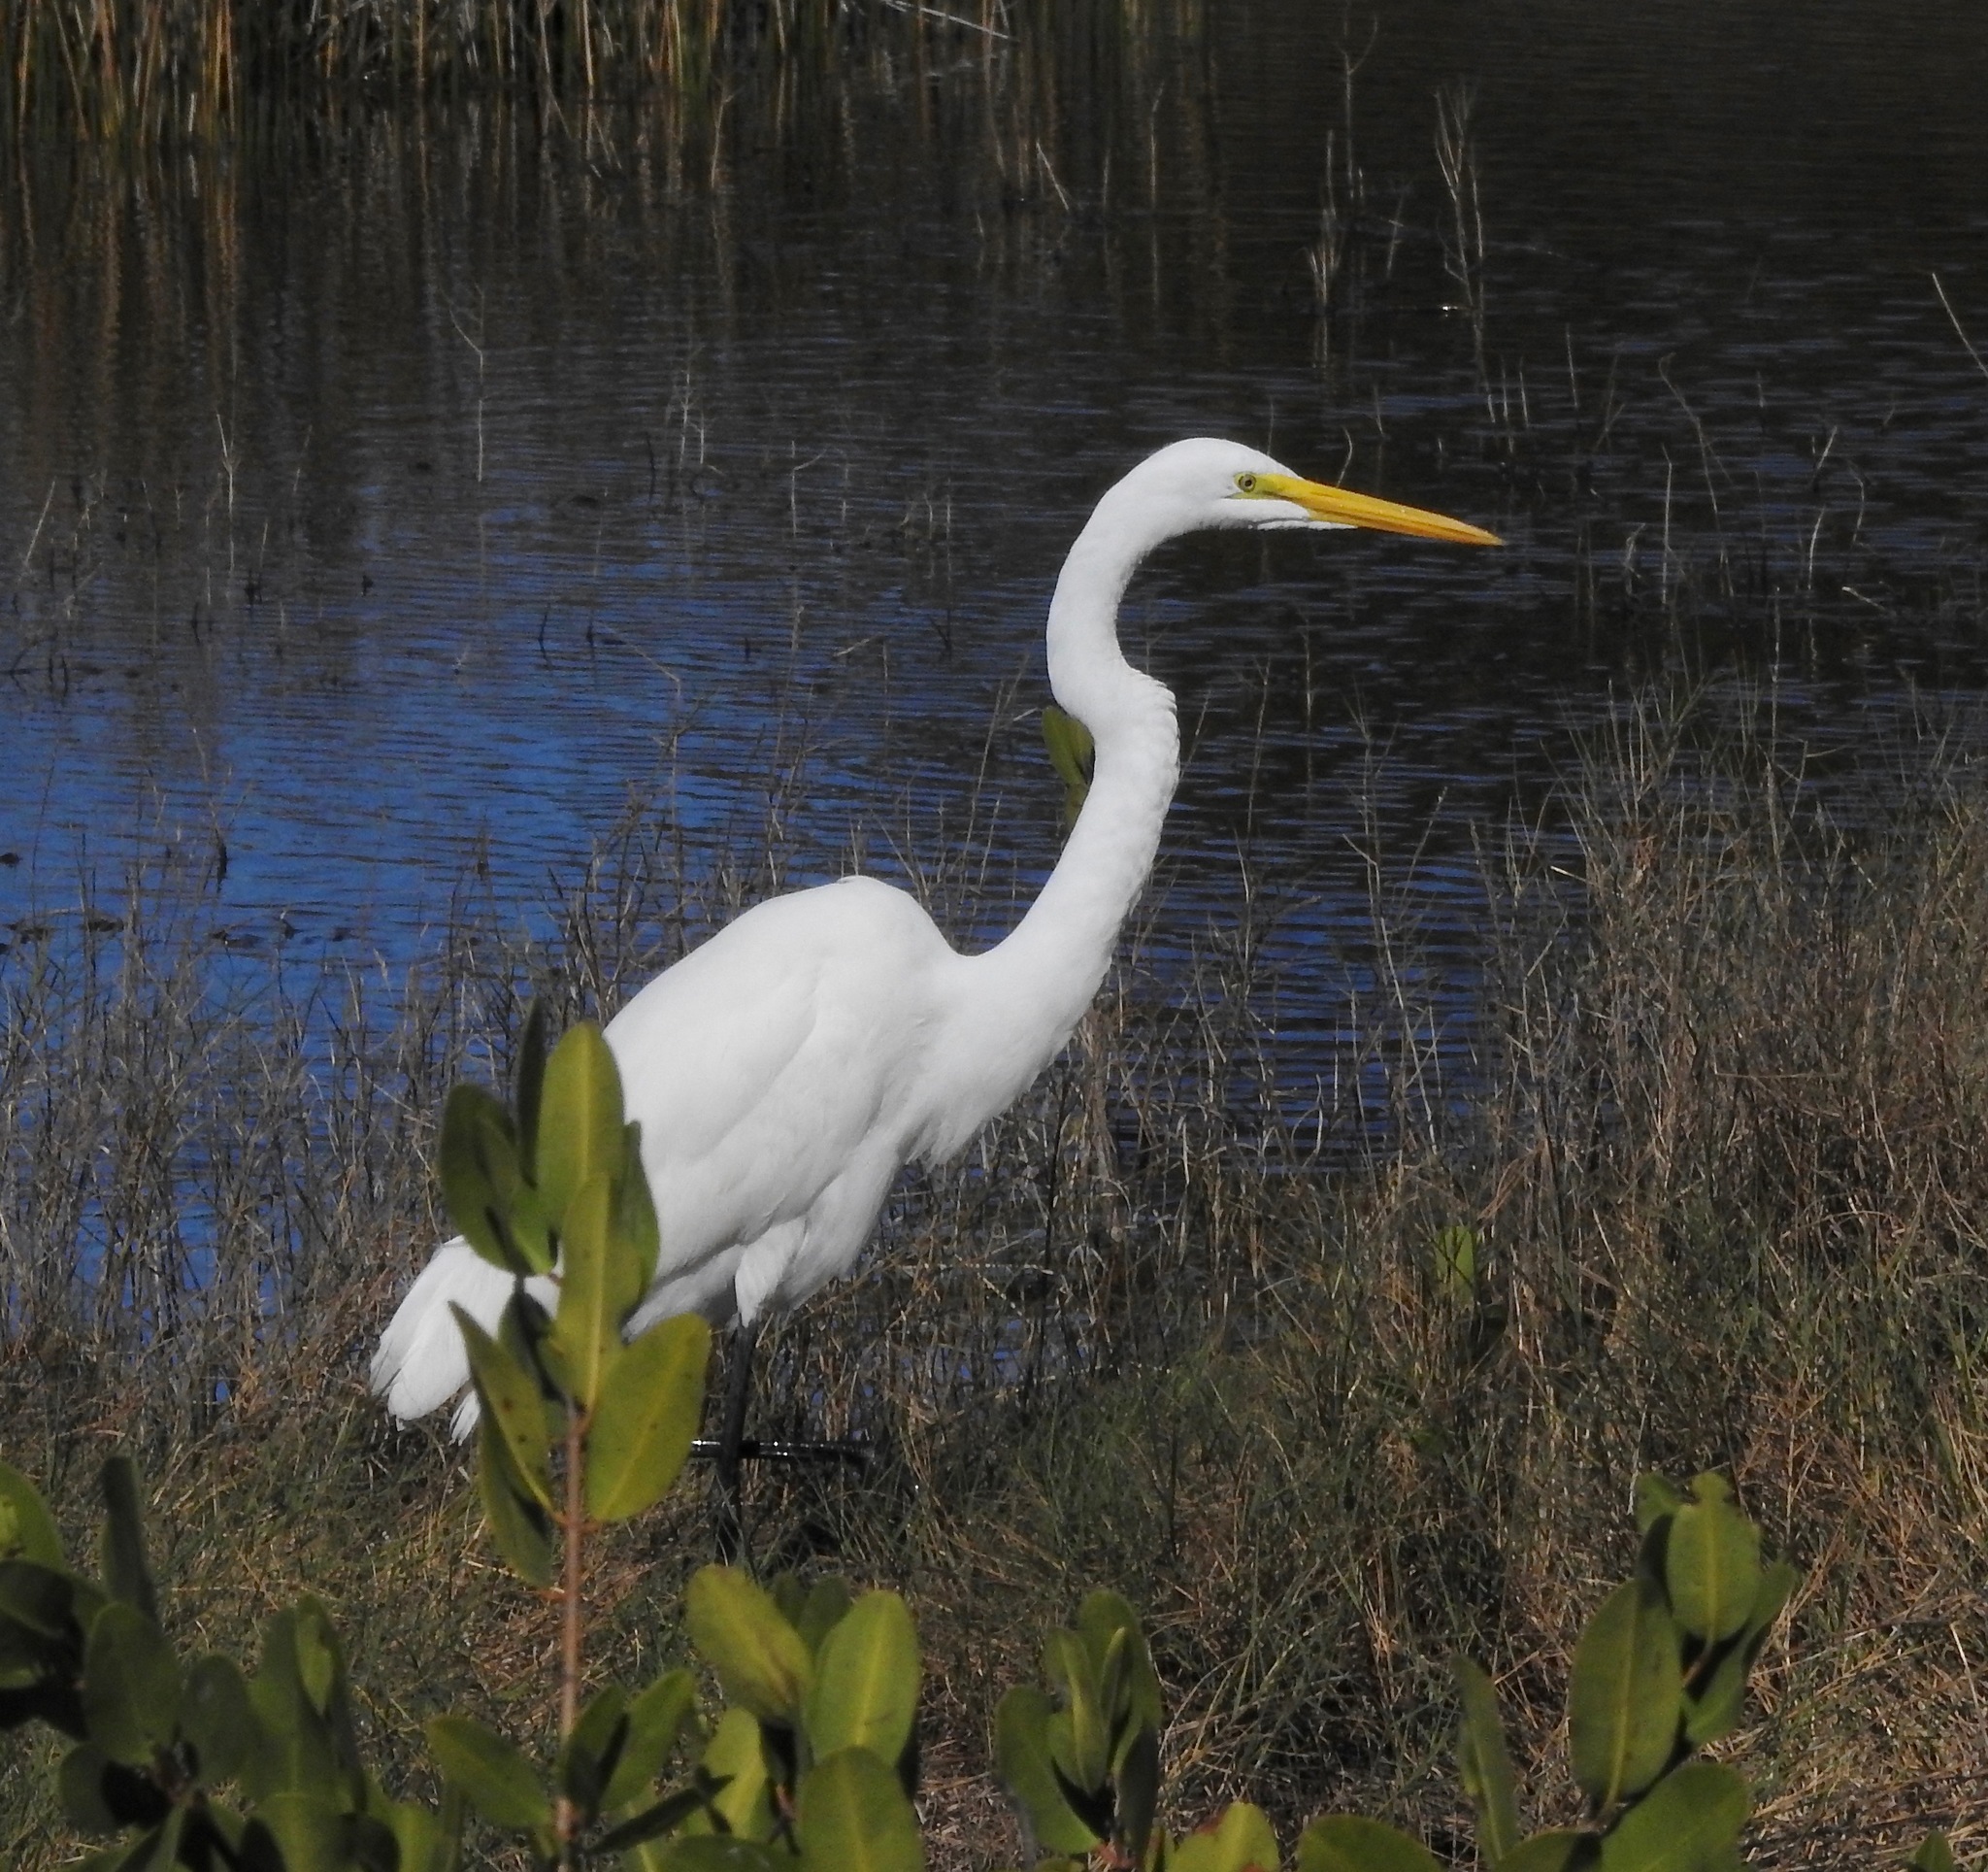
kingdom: Animalia
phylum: Chordata
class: Aves
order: Pelecaniformes
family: Ardeidae
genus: Ardea
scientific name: Ardea alba
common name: Great egret
